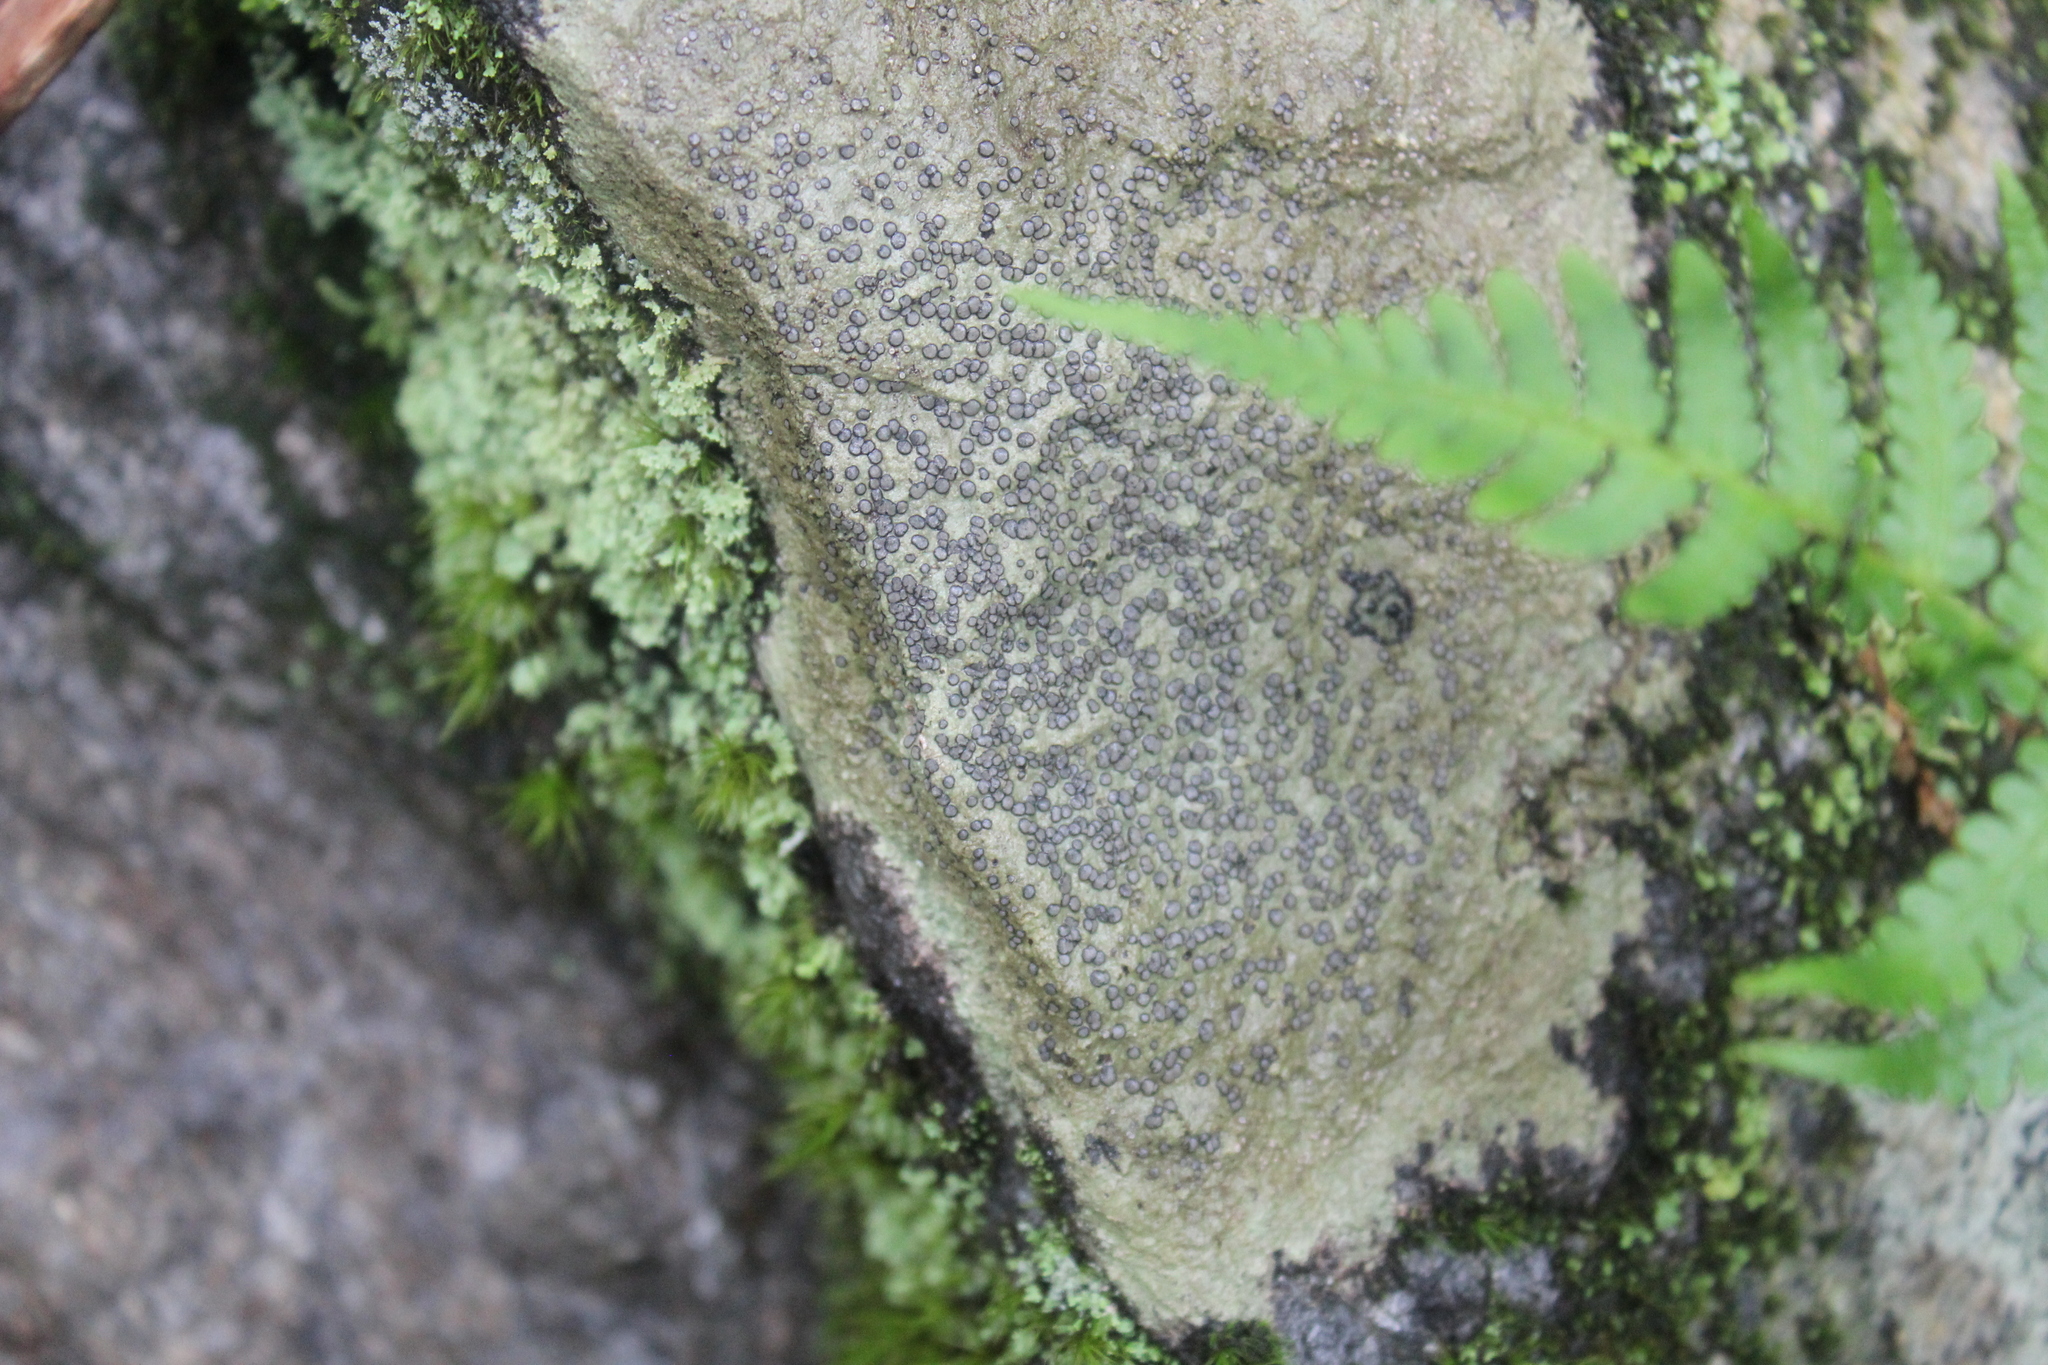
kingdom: Fungi
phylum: Ascomycota
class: Lecanoromycetes
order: Lecideales
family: Lecideaceae
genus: Porpidia
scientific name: Porpidia albocaerulescens
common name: Smokey-eyed boulder lichen
